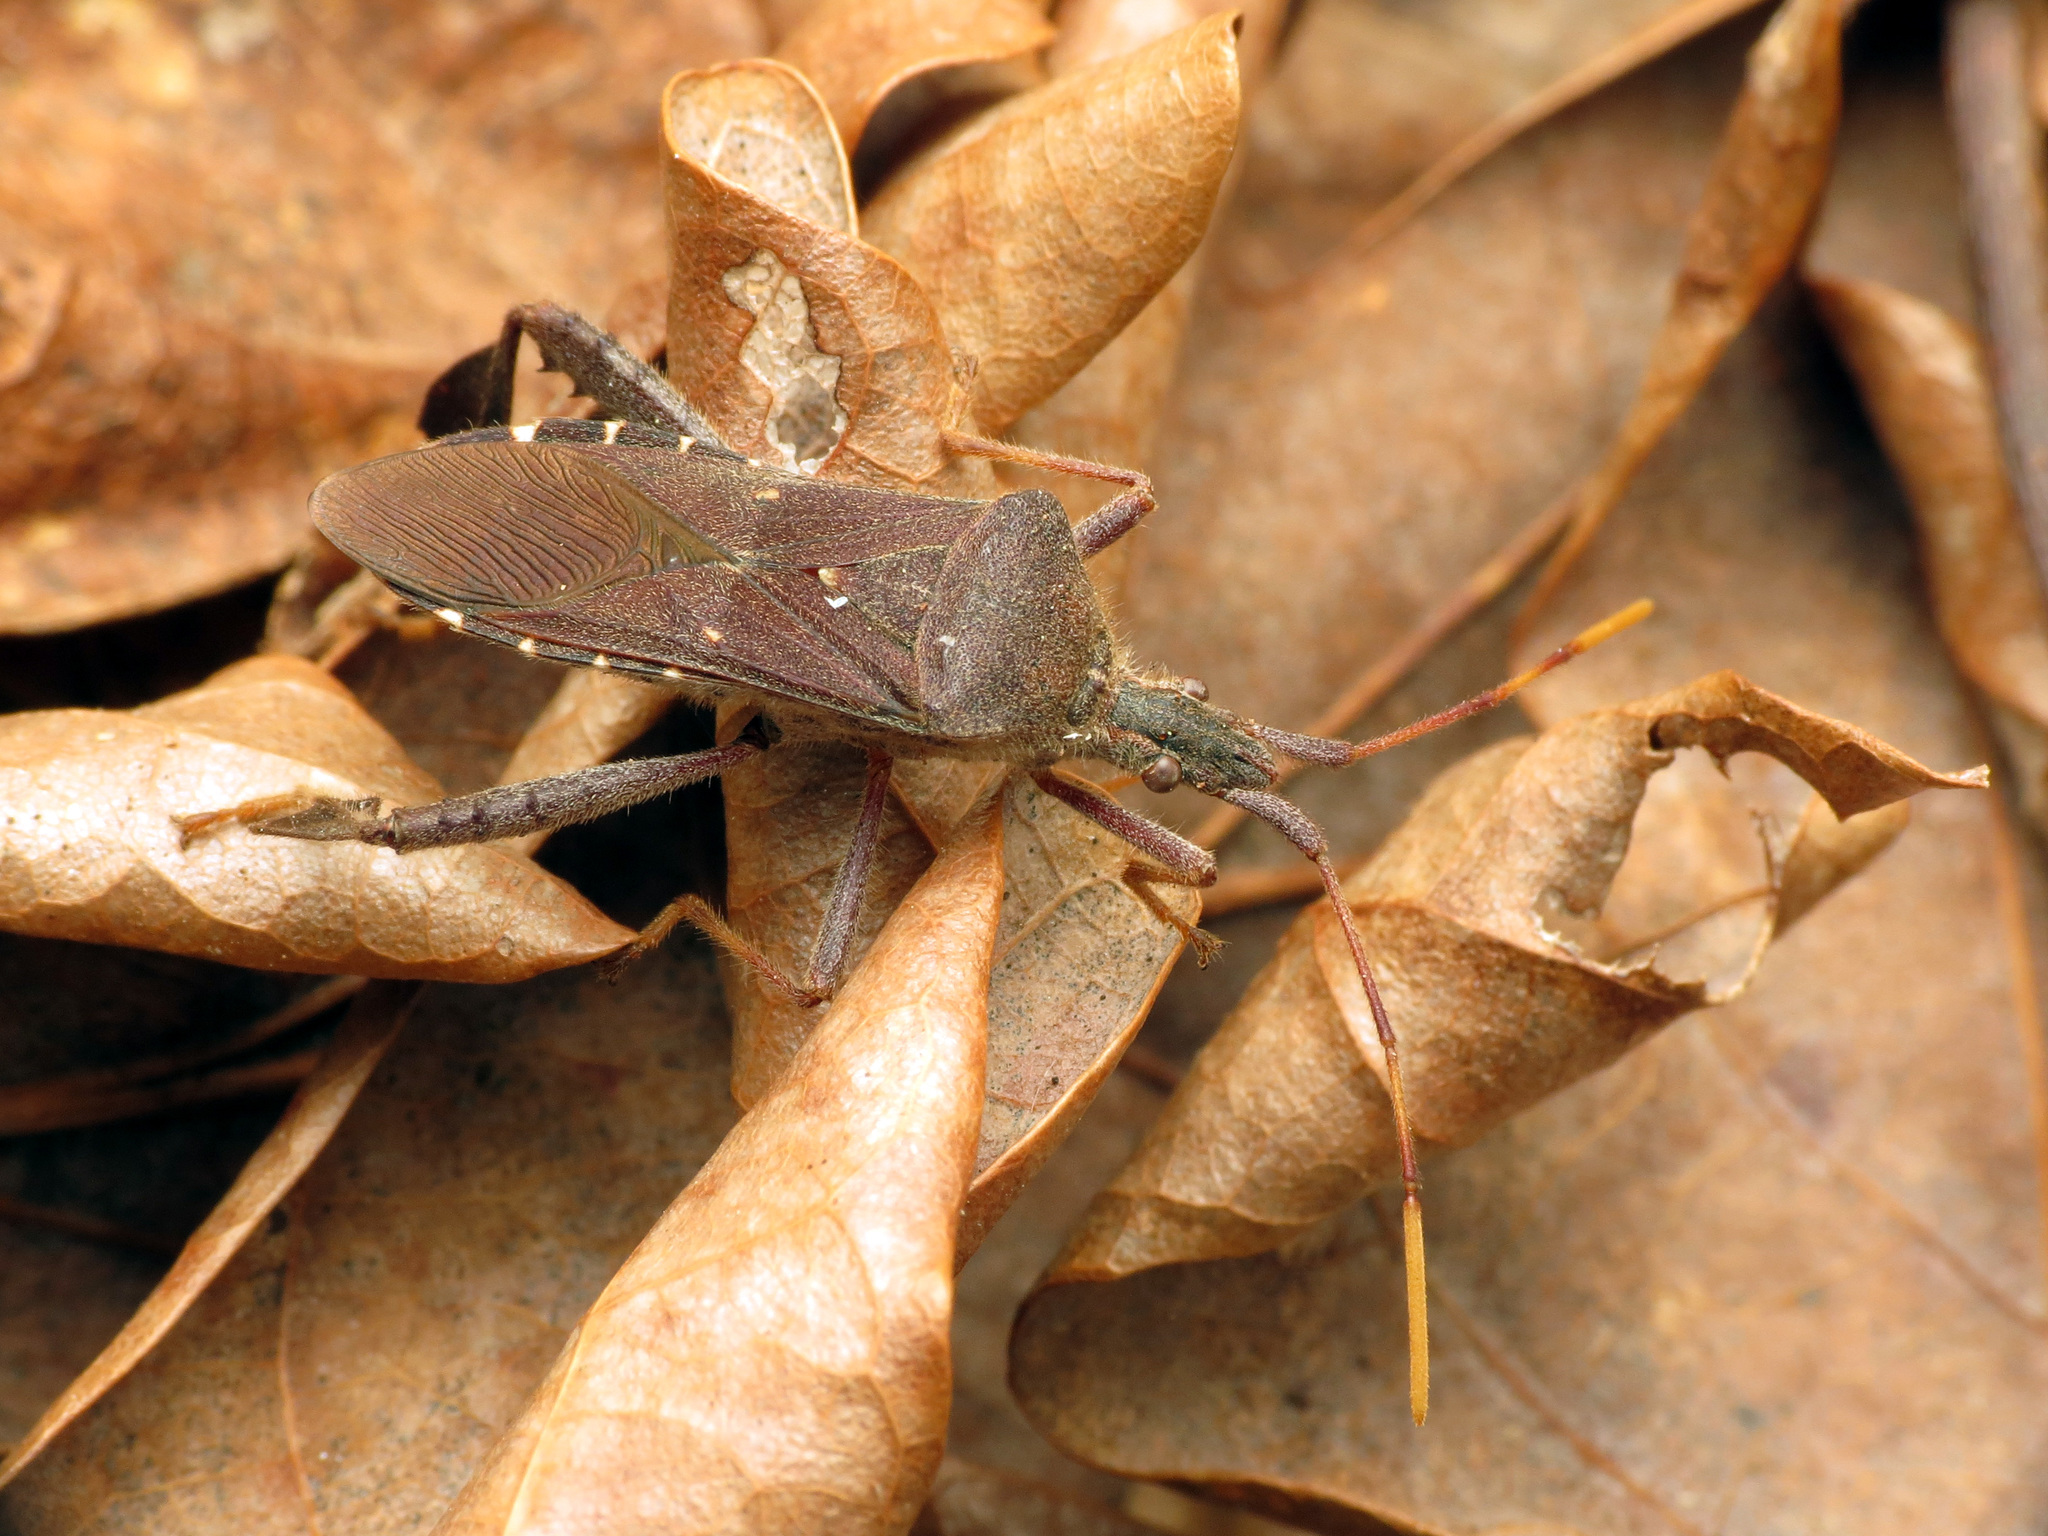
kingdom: Animalia
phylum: Arthropoda
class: Insecta
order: Hemiptera
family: Coreidae
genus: Leptoglossus
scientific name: Leptoglossus oppositus
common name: Northern leaf-footed bug
